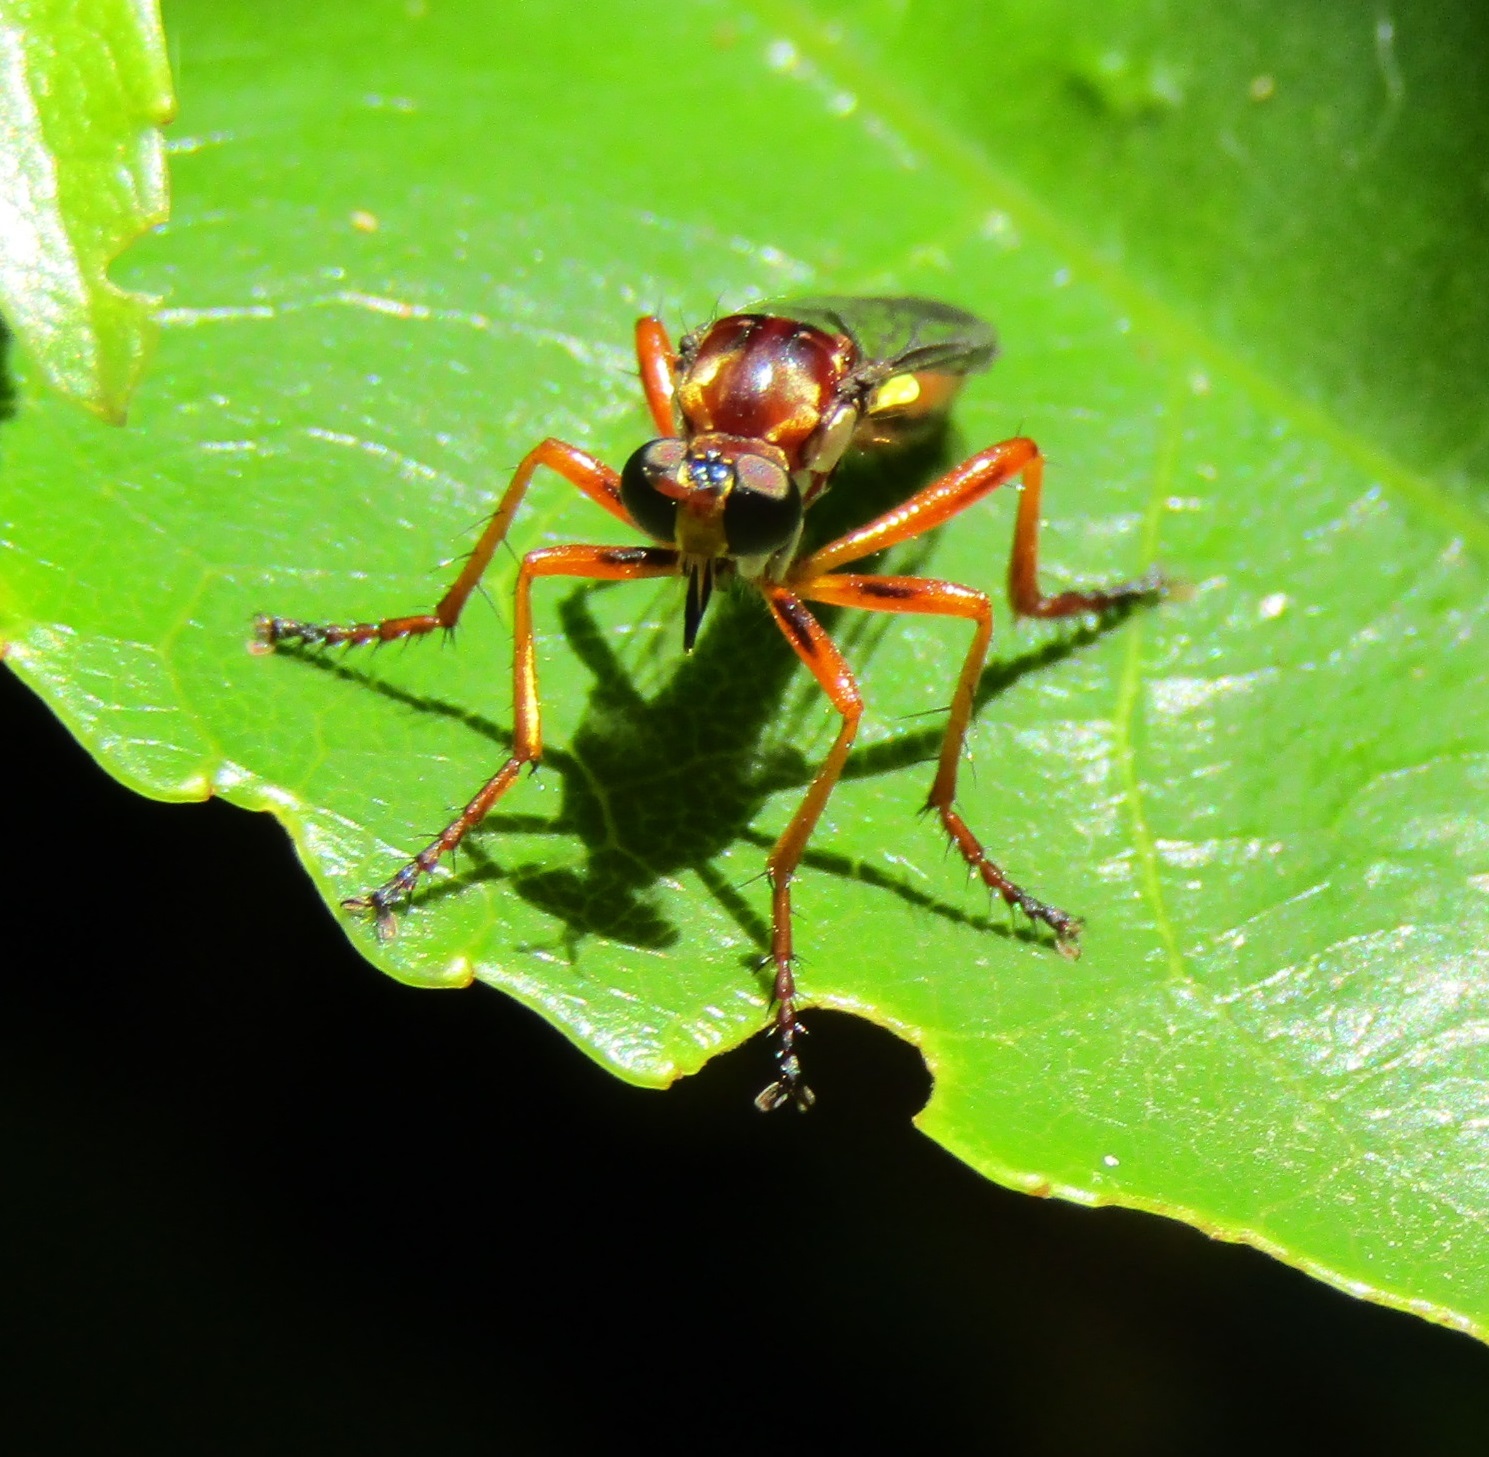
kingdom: Animalia
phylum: Arthropoda
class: Insecta
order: Diptera
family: Asilidae
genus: Saropogon
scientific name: Saropogon antipodus
